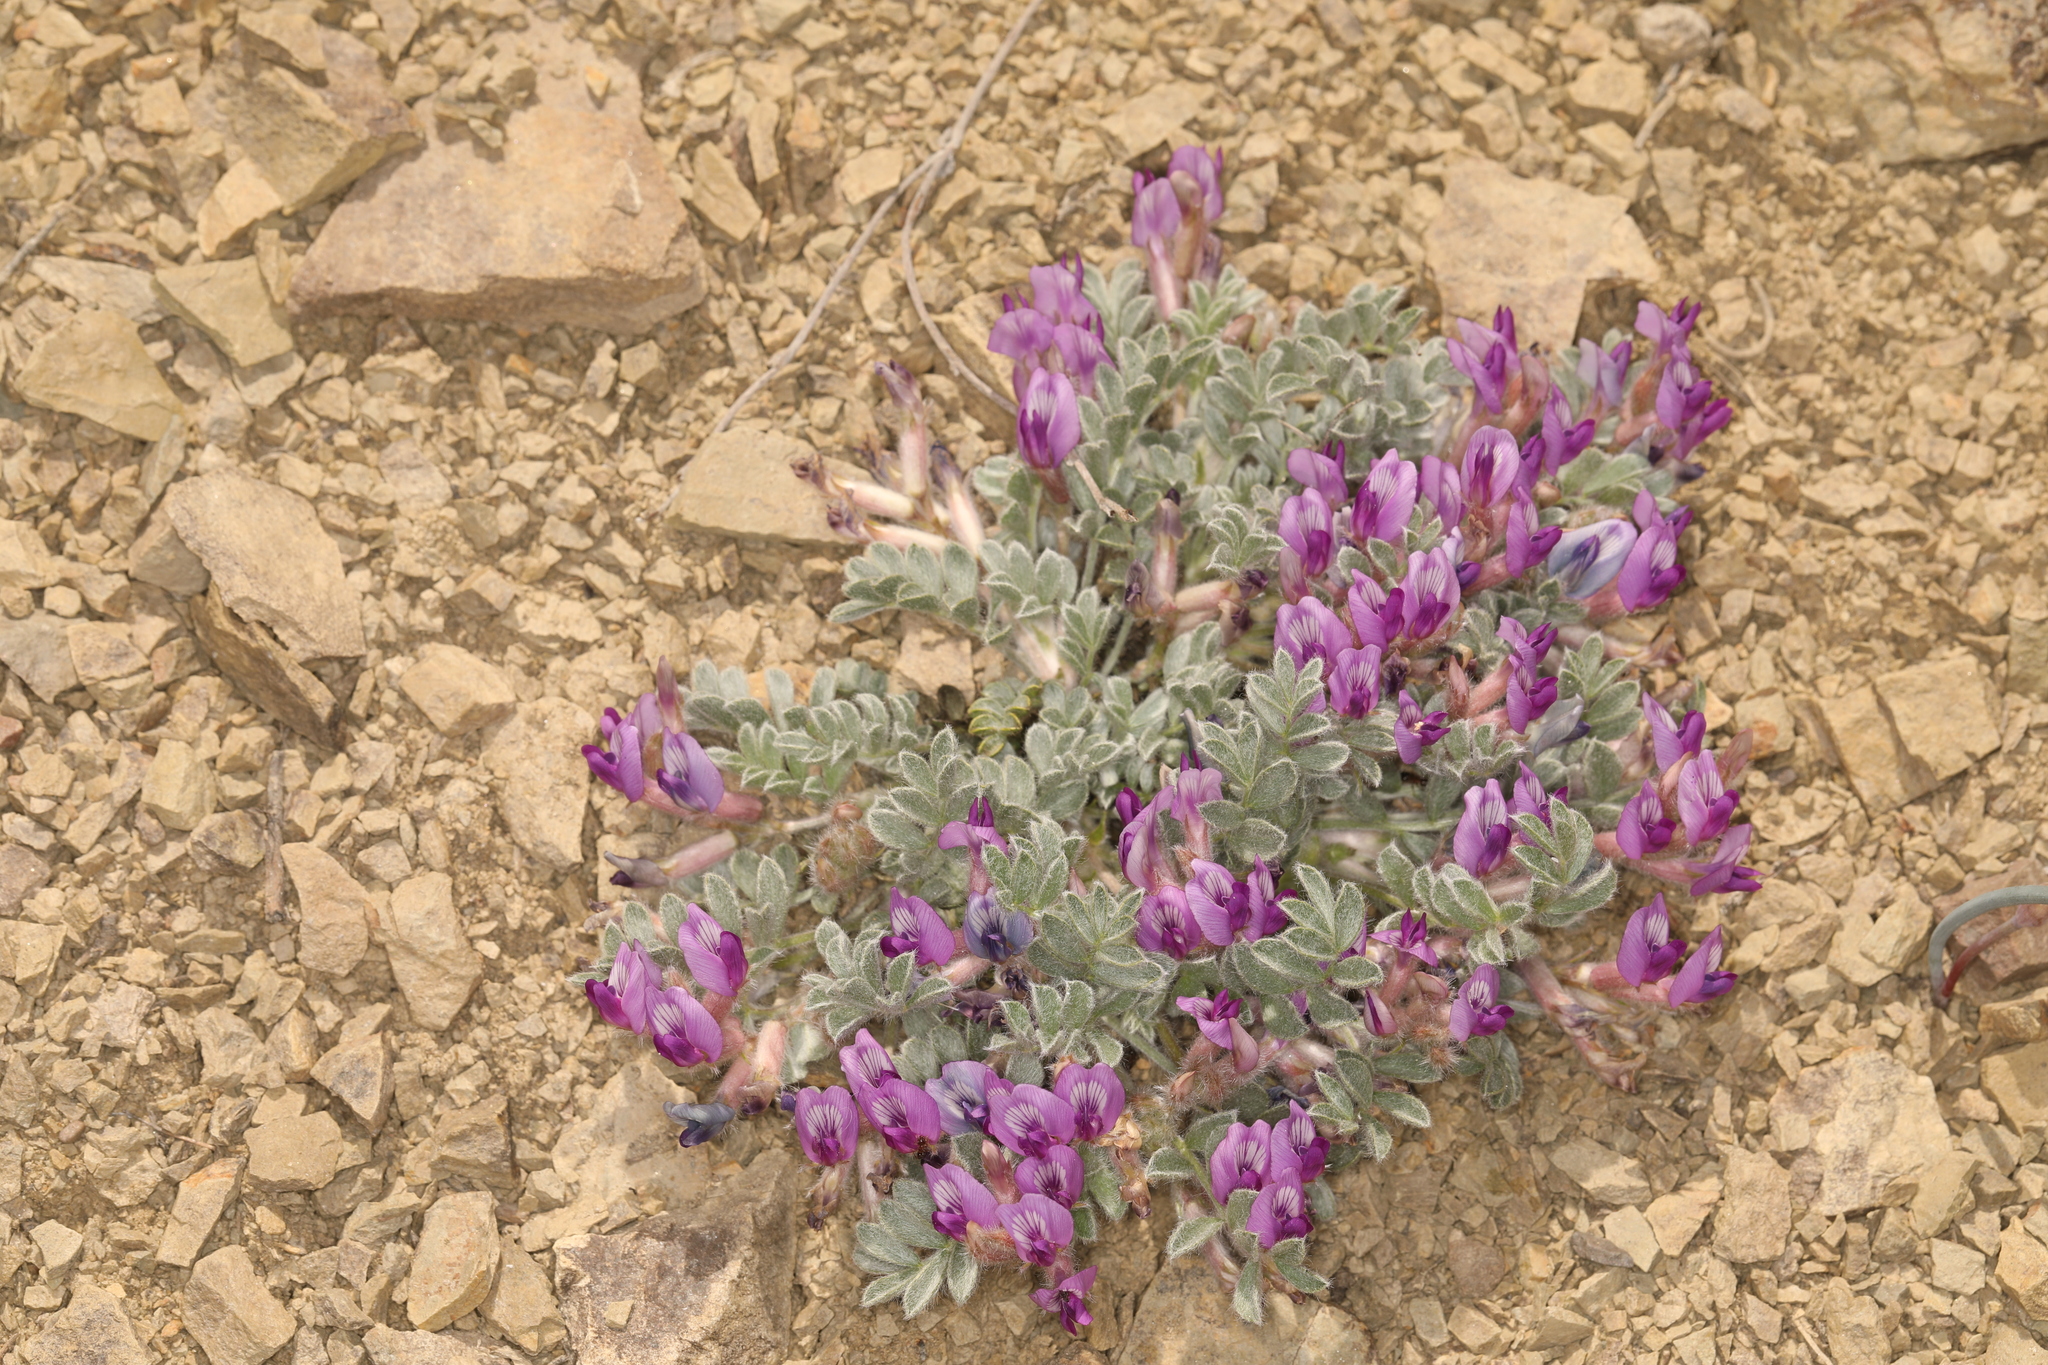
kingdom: Plantae
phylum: Tracheophyta
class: Magnoliopsida
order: Fabales
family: Fabaceae
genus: Astragalus
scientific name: Astragalus purshii
